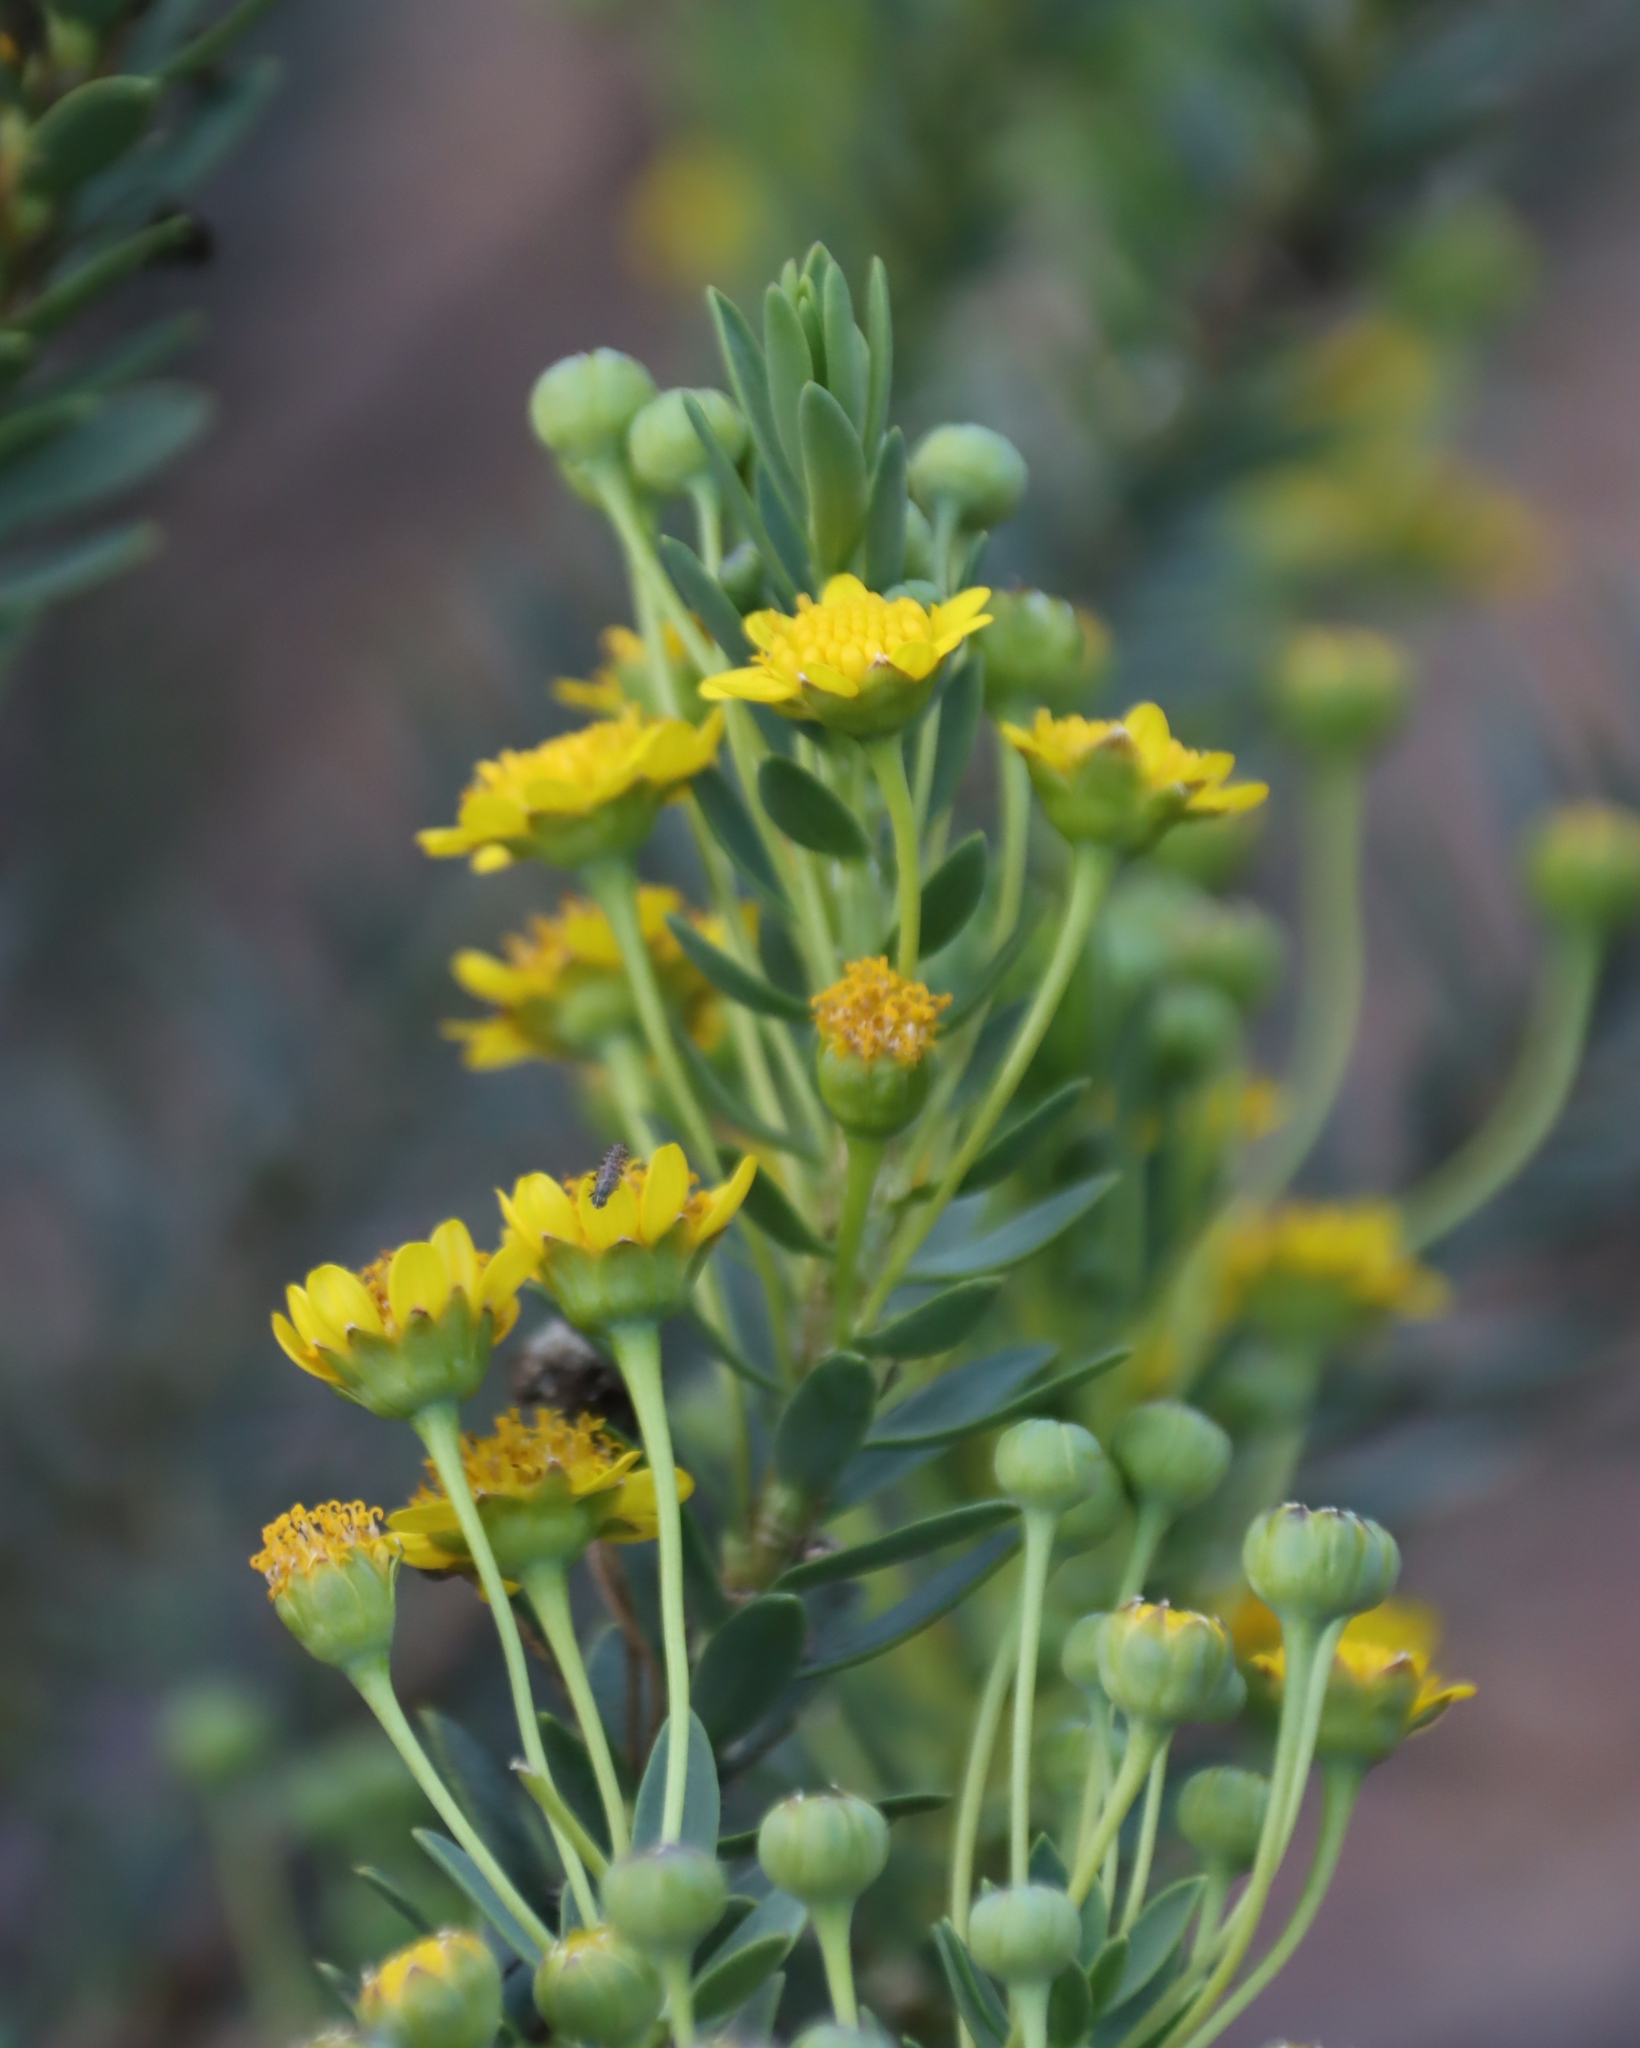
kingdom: Plantae
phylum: Tracheophyta
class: Magnoliopsida
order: Asterales
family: Asteraceae
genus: Euryops
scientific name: Euryops lateriflorus
